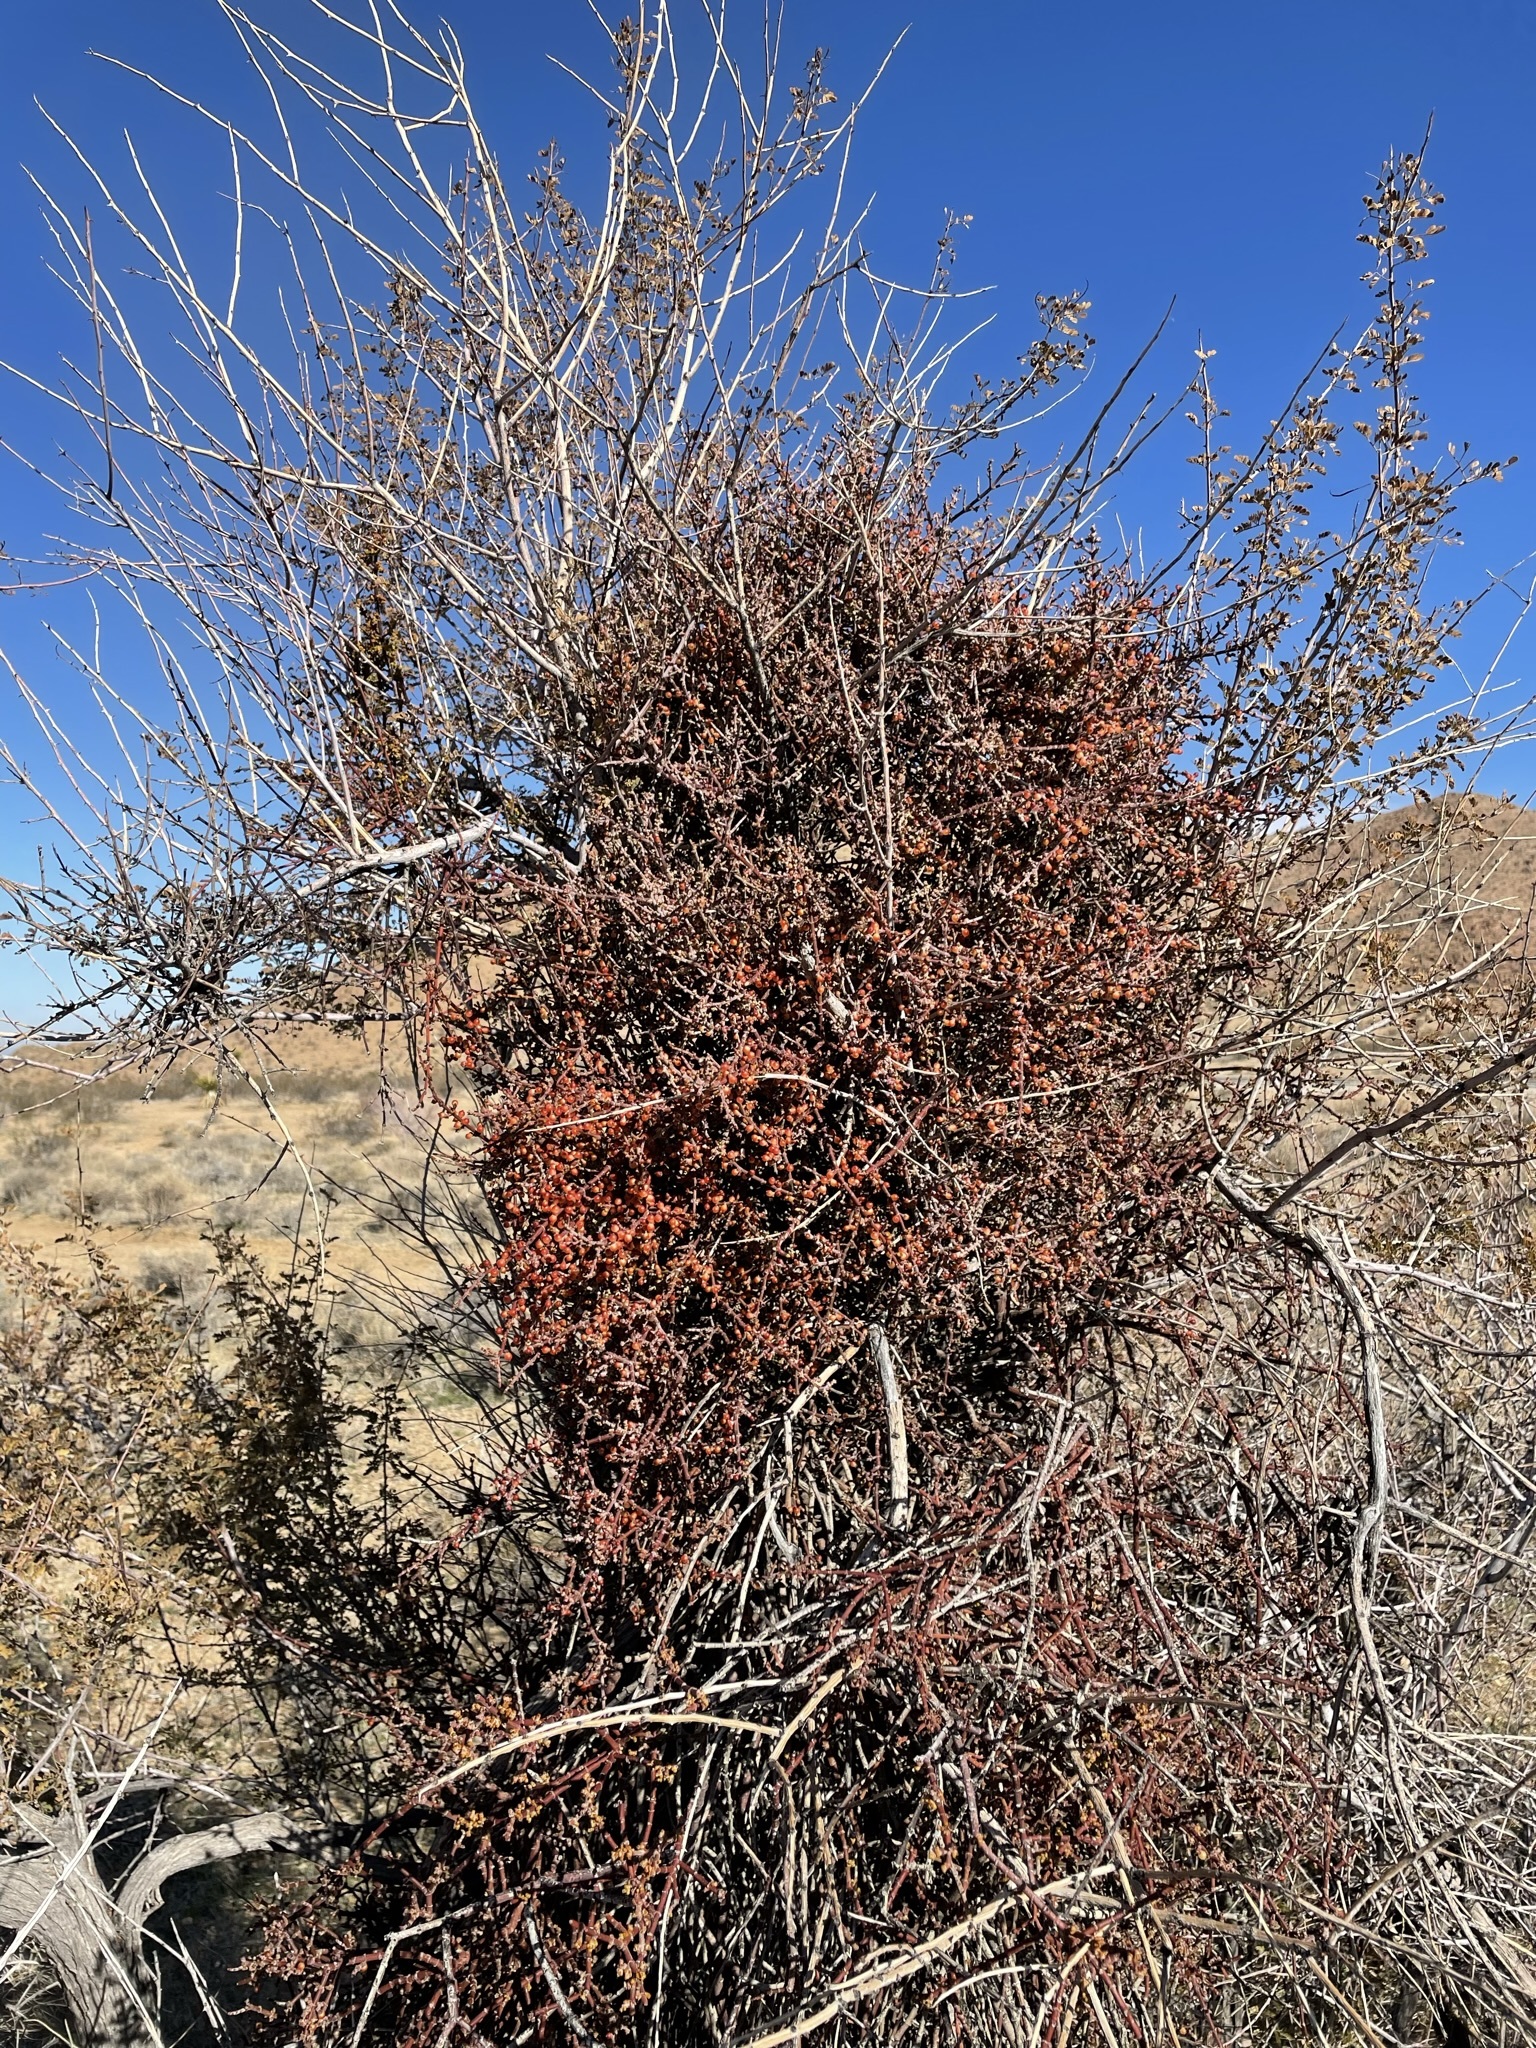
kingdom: Plantae
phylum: Tracheophyta
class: Magnoliopsida
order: Santalales
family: Viscaceae
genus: Phoradendron
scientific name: Phoradendron californicum
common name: Acacia mistletoe
